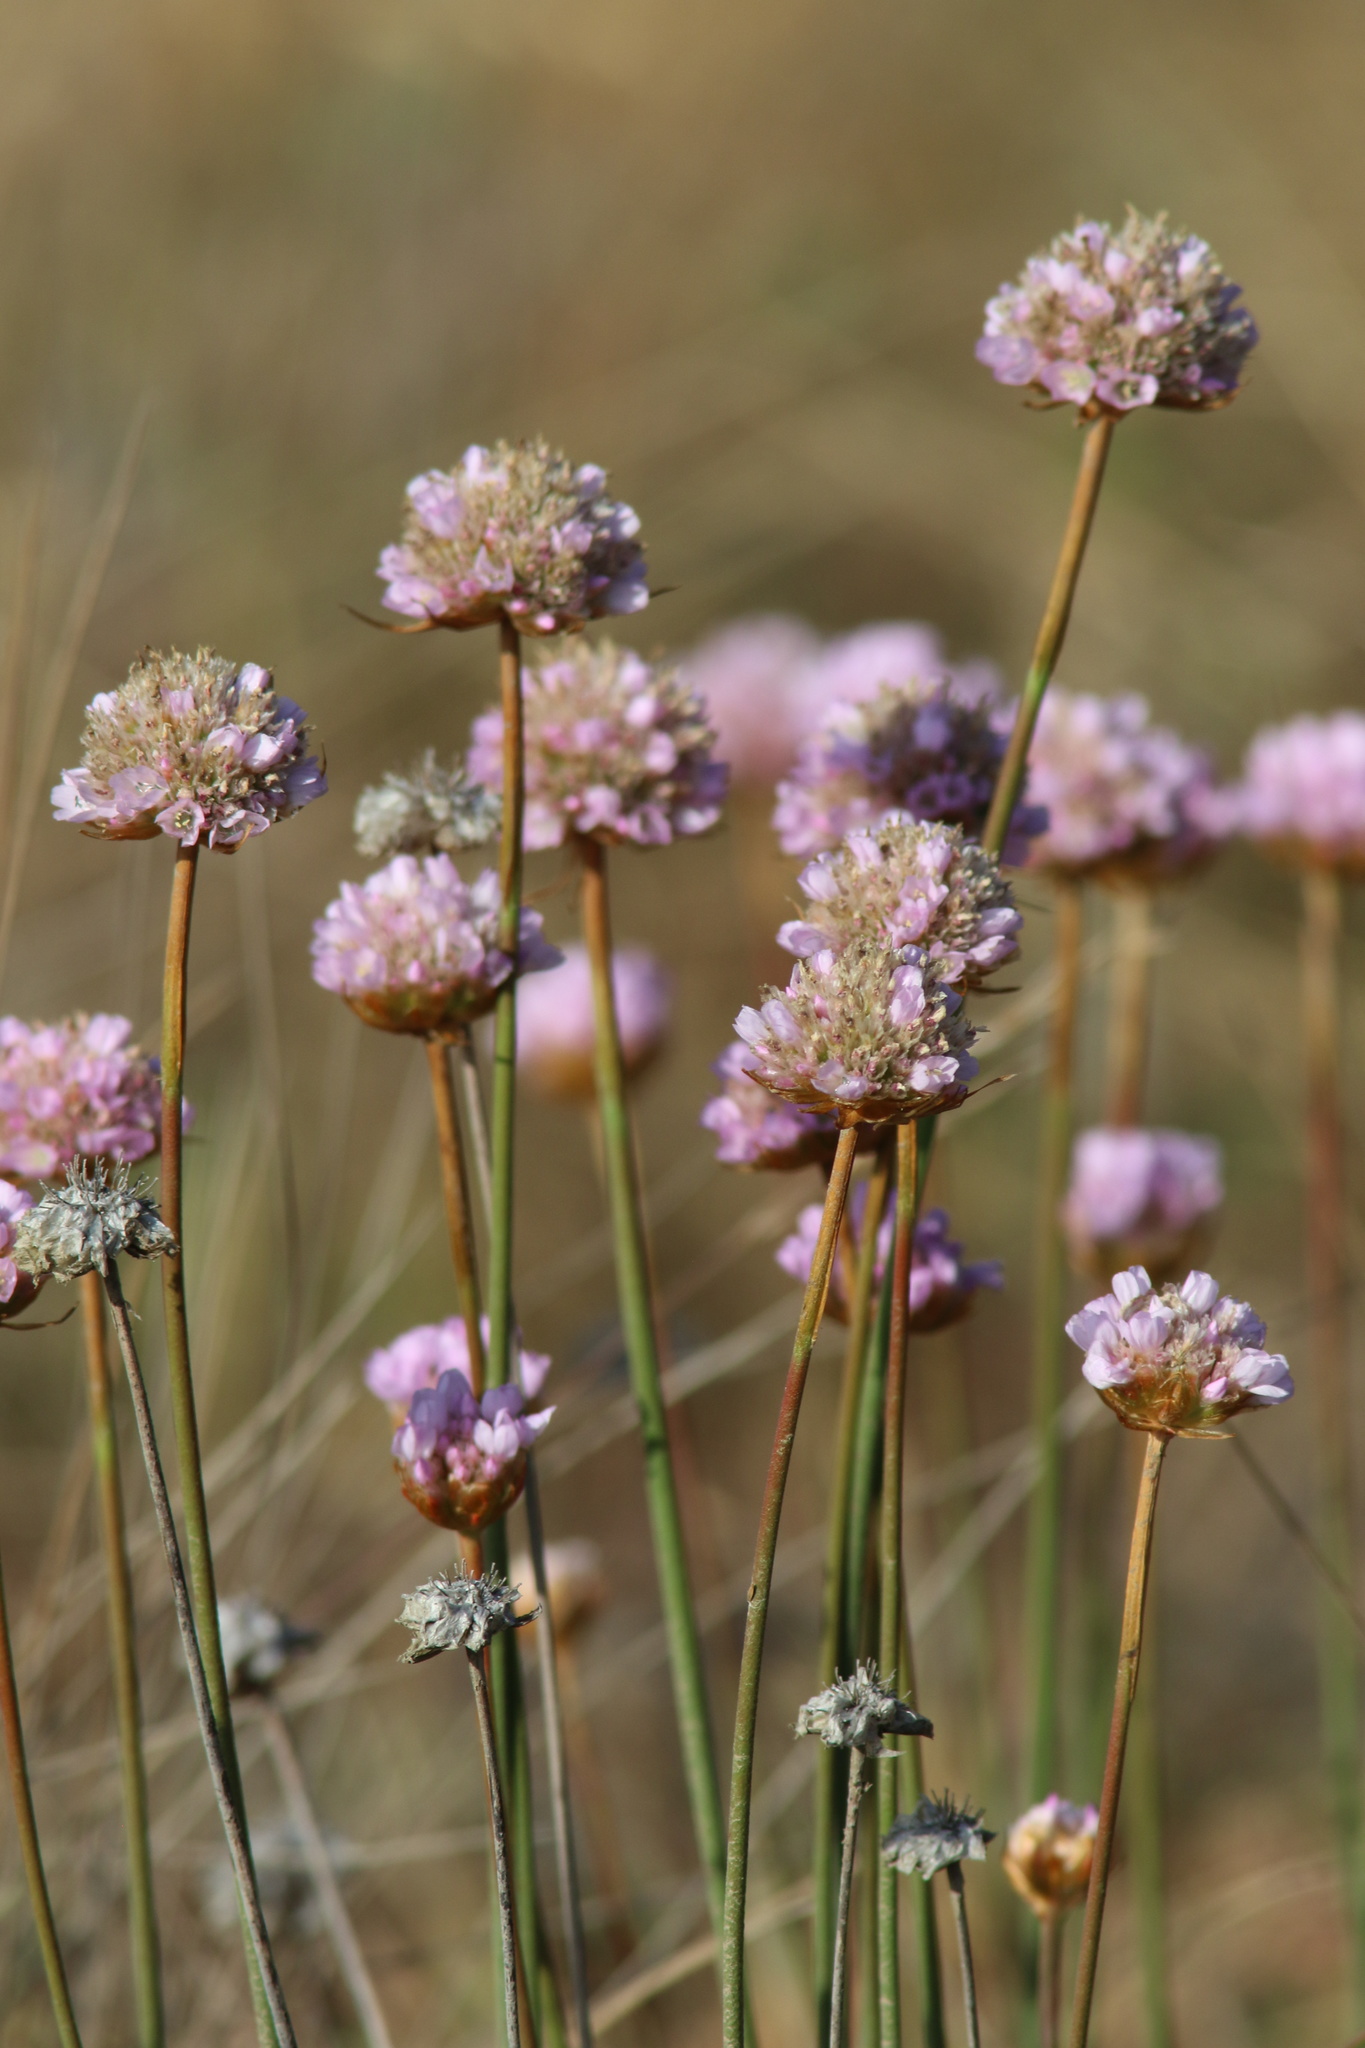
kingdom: Plantae
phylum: Tracheophyta
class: Magnoliopsida
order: Caryophyllales
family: Plumbaginaceae
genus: Armeria
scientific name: Armeria maritima
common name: Thrift
